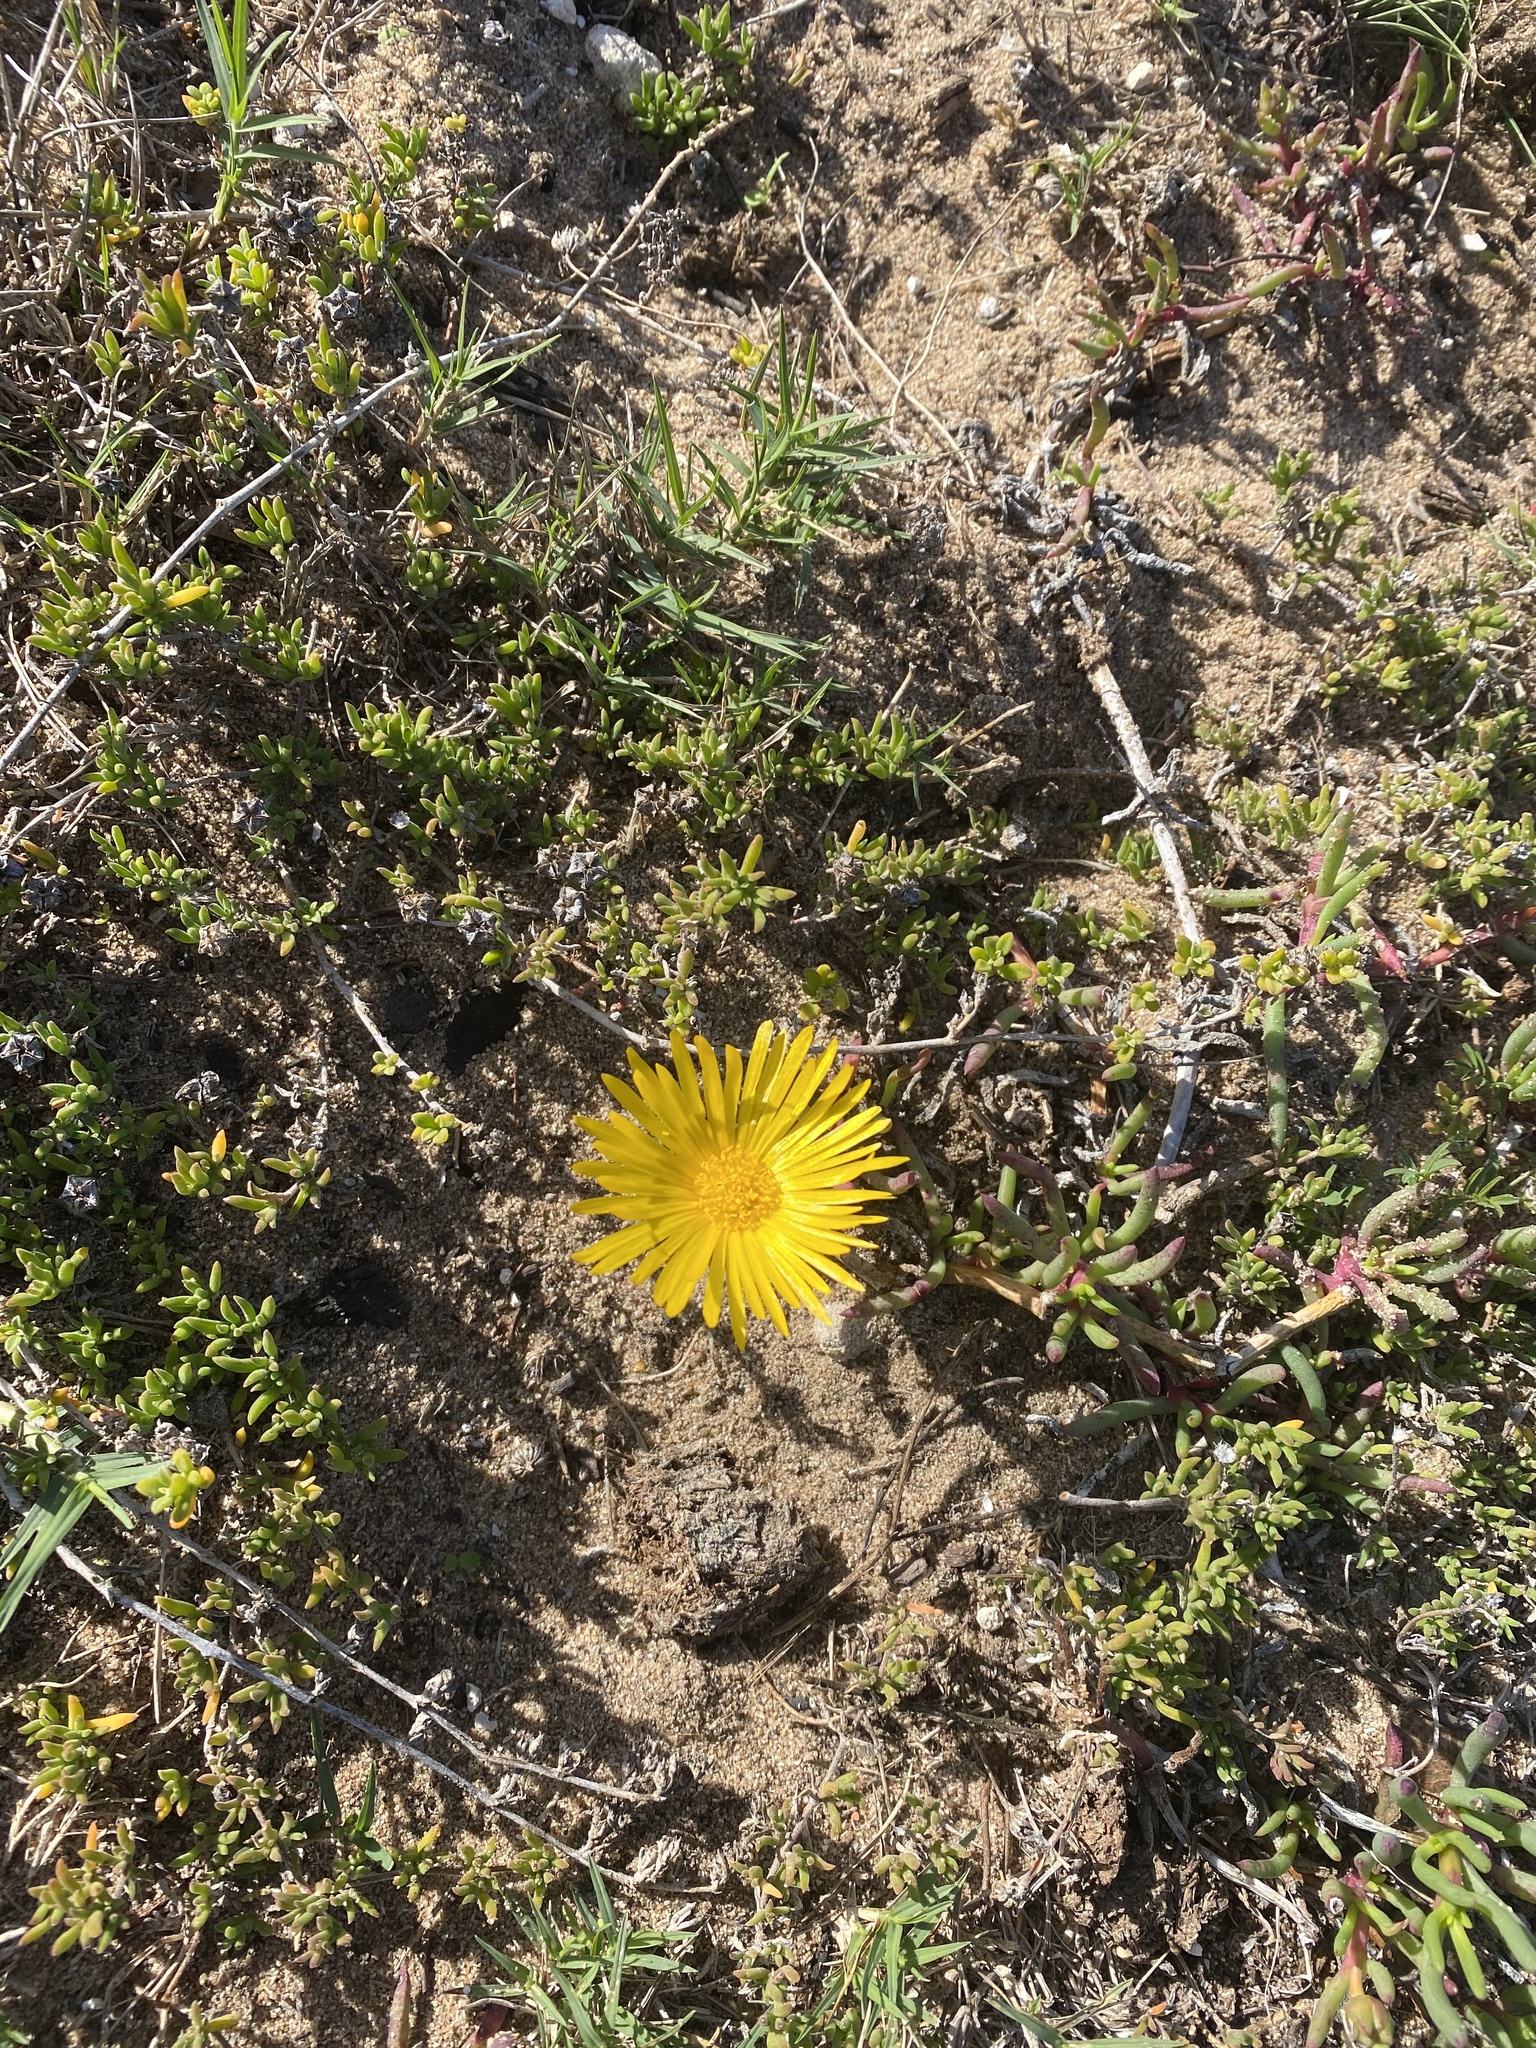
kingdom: Plantae
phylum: Tracheophyta
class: Magnoliopsida
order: Caryophyllales
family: Aizoaceae
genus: Jordaaniella
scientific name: Jordaaniella dubia
